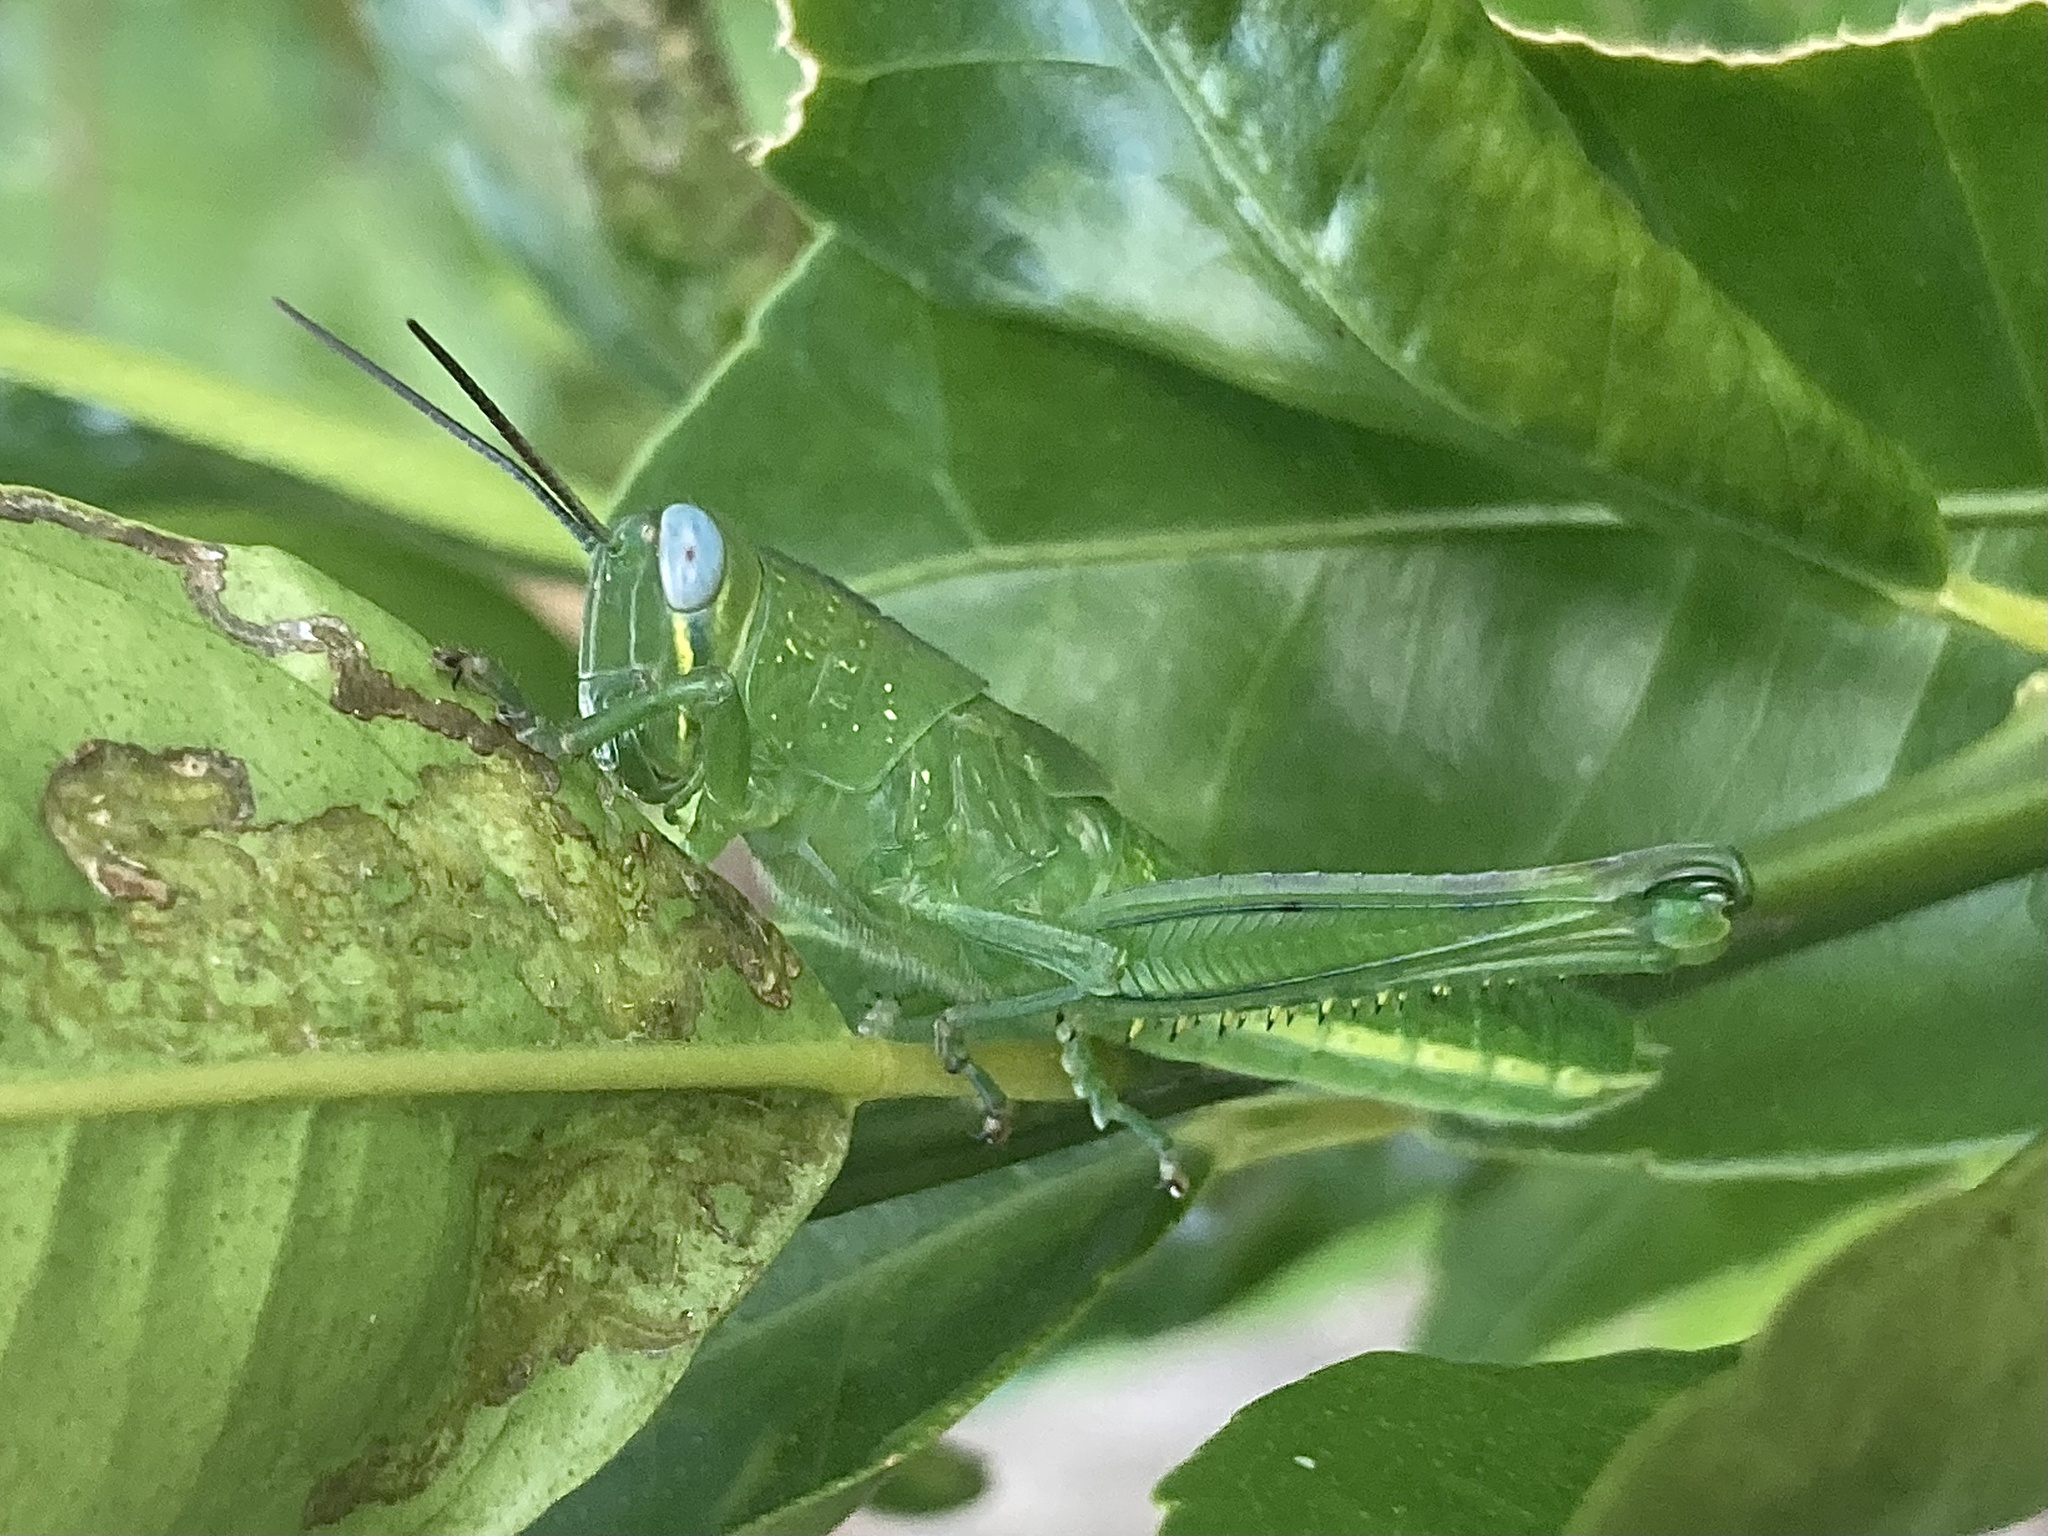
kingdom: Animalia
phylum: Arthropoda
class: Insecta
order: Orthoptera
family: Acrididae
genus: Valanga
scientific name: Valanga irregularis
